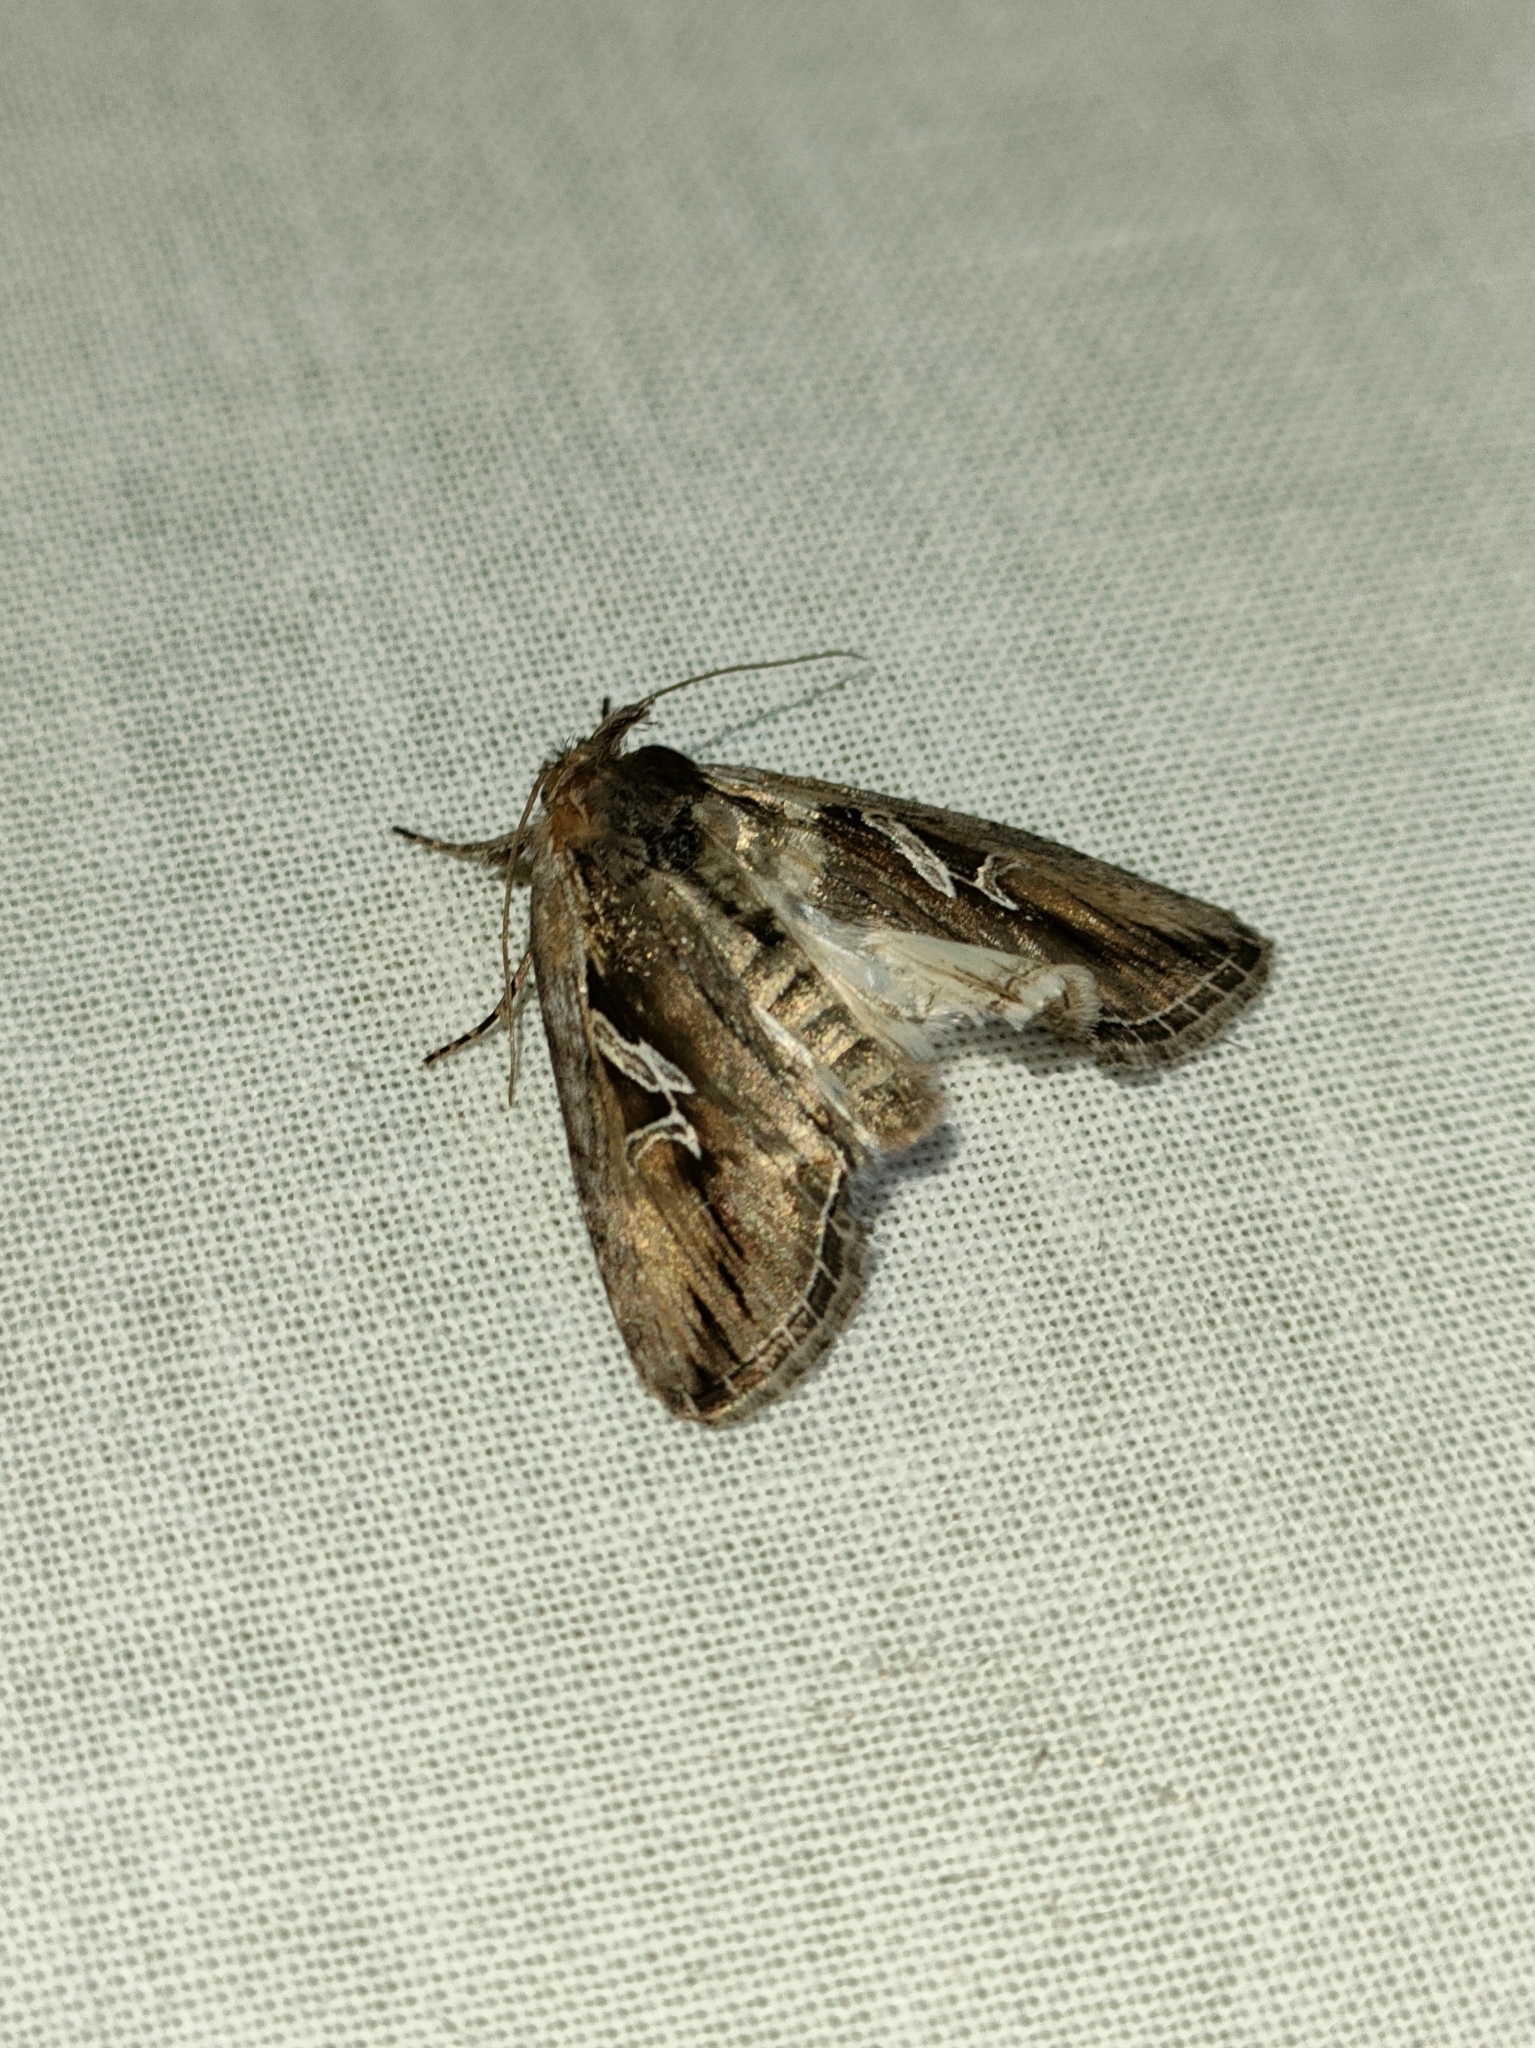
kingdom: Animalia
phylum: Arthropoda
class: Insecta
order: Lepidoptera
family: Noctuidae
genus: Lophoterges
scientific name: Lophoterges millierei
